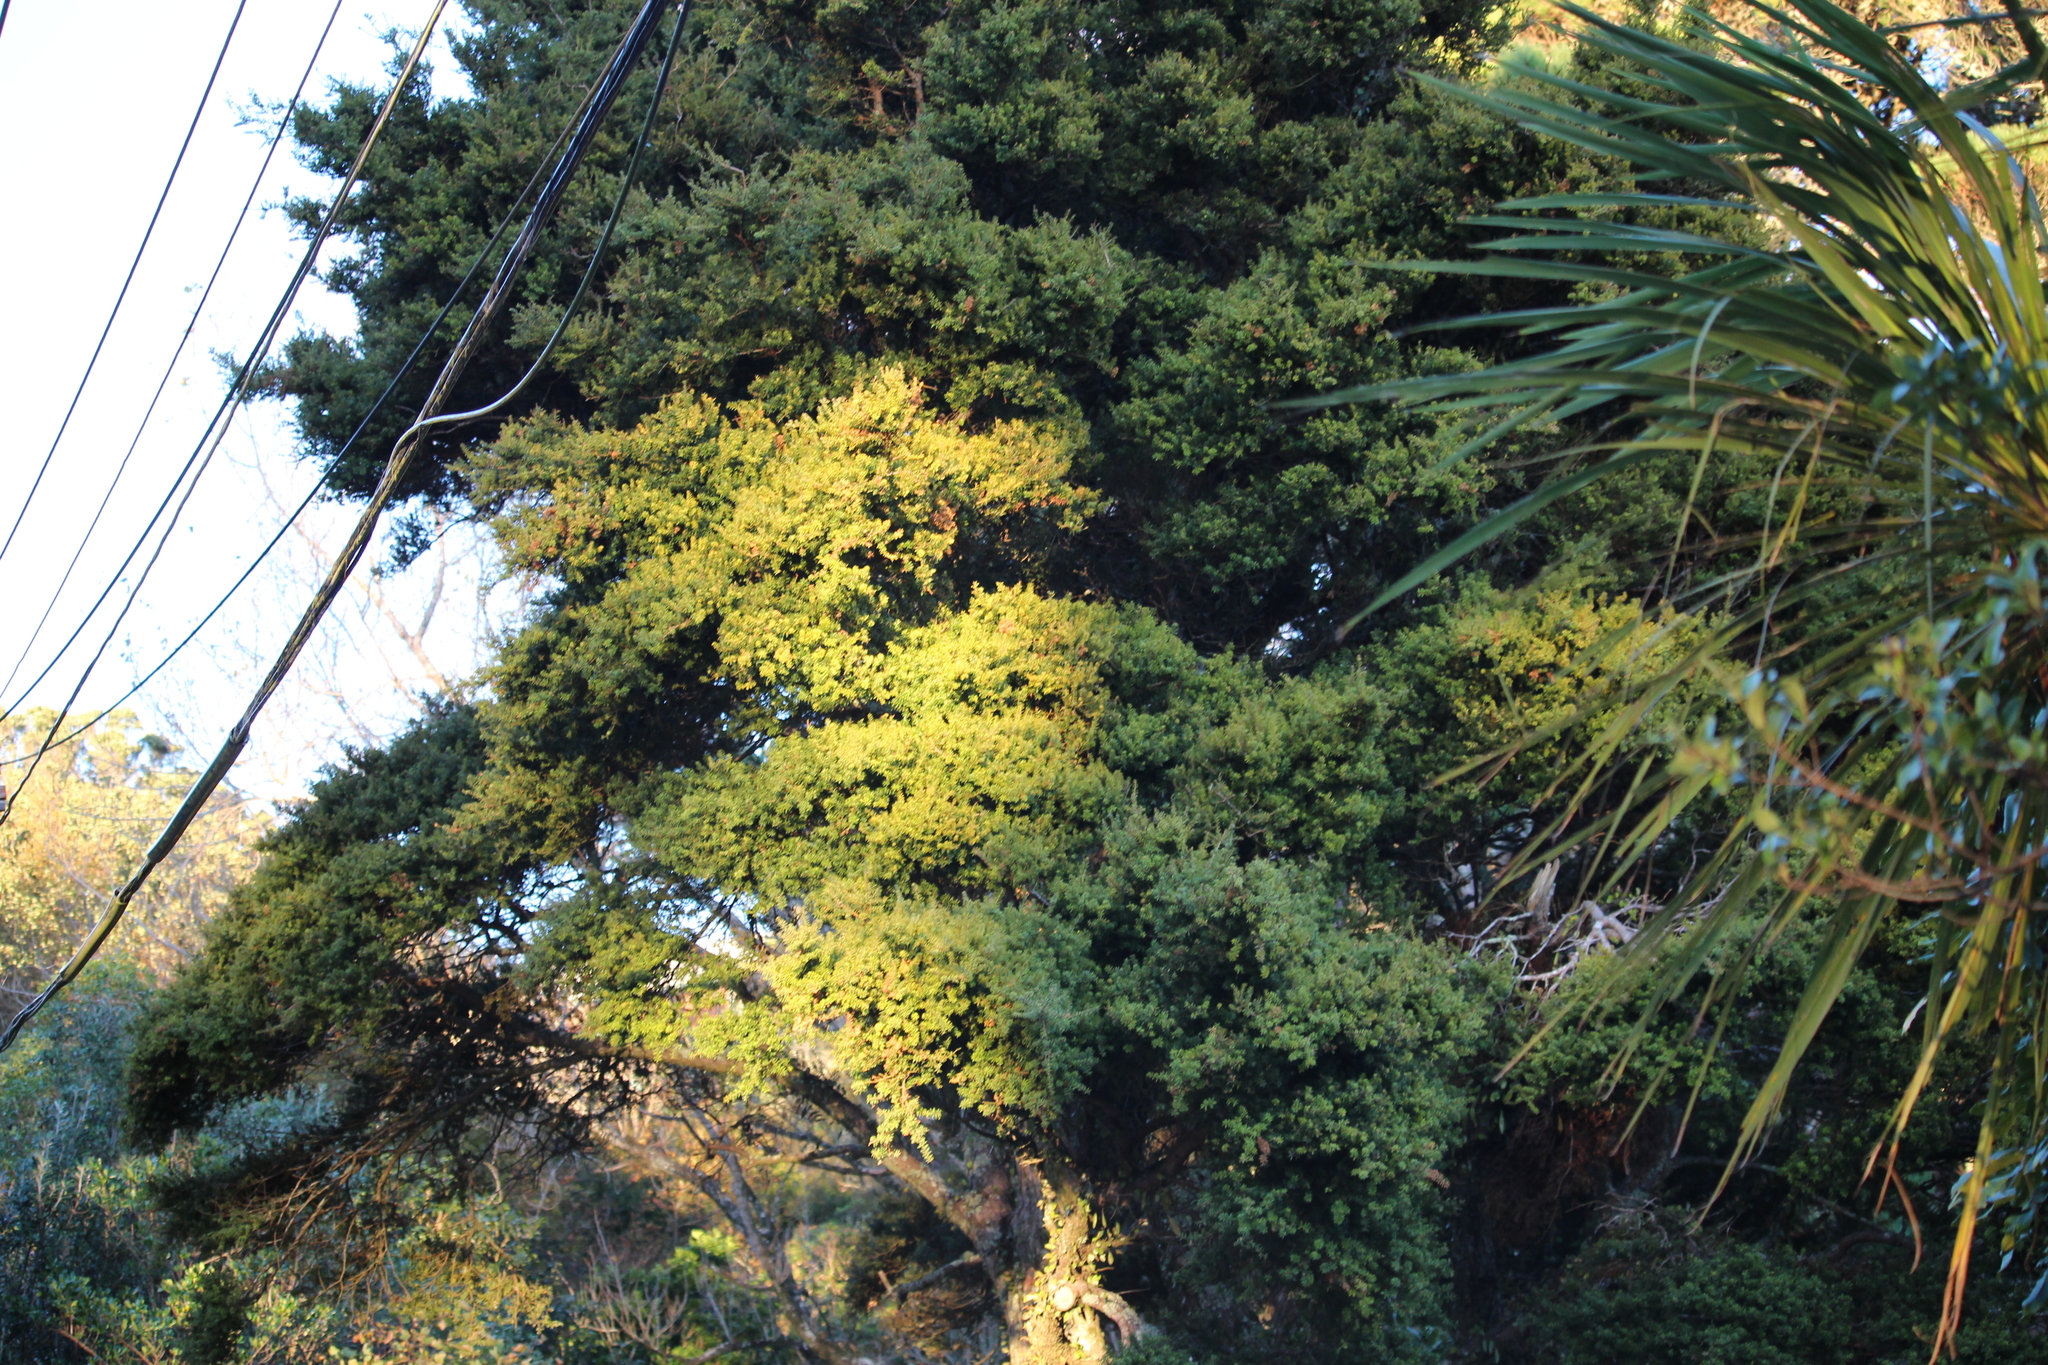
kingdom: Plantae
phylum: Tracheophyta
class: Pinopsida
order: Pinales
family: Podocarpaceae
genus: Podocarpus
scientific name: Podocarpus totara
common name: Totara
